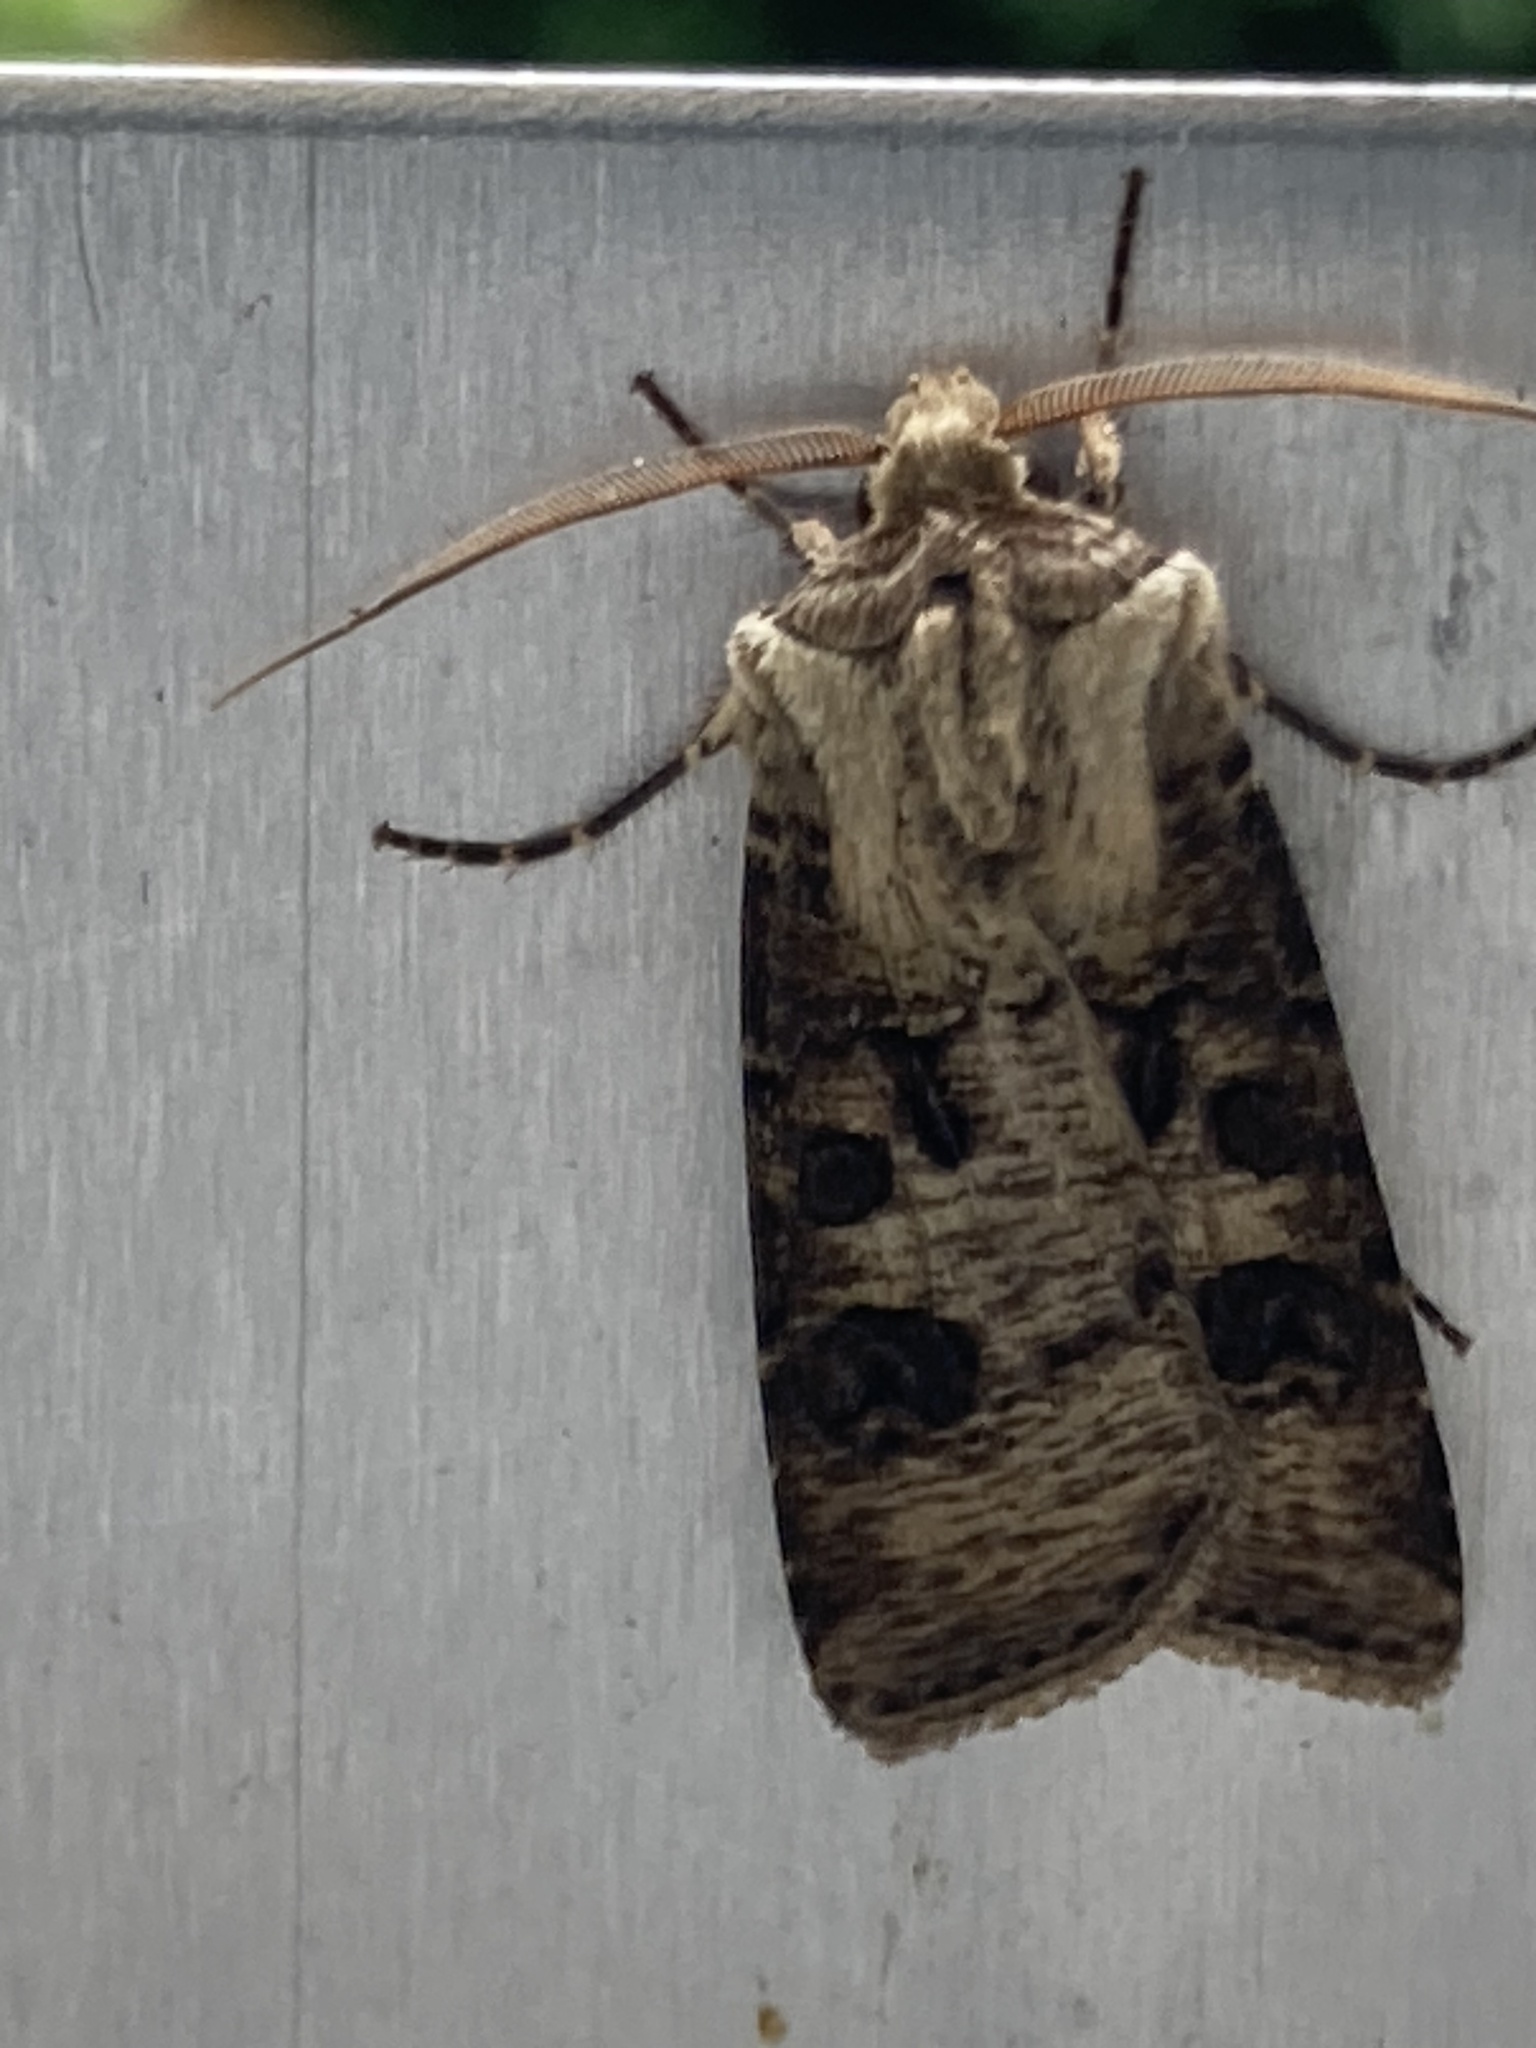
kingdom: Animalia
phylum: Arthropoda
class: Insecta
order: Lepidoptera
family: Noctuidae
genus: Agrotis
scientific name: Agrotis clavis
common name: Heart and club
